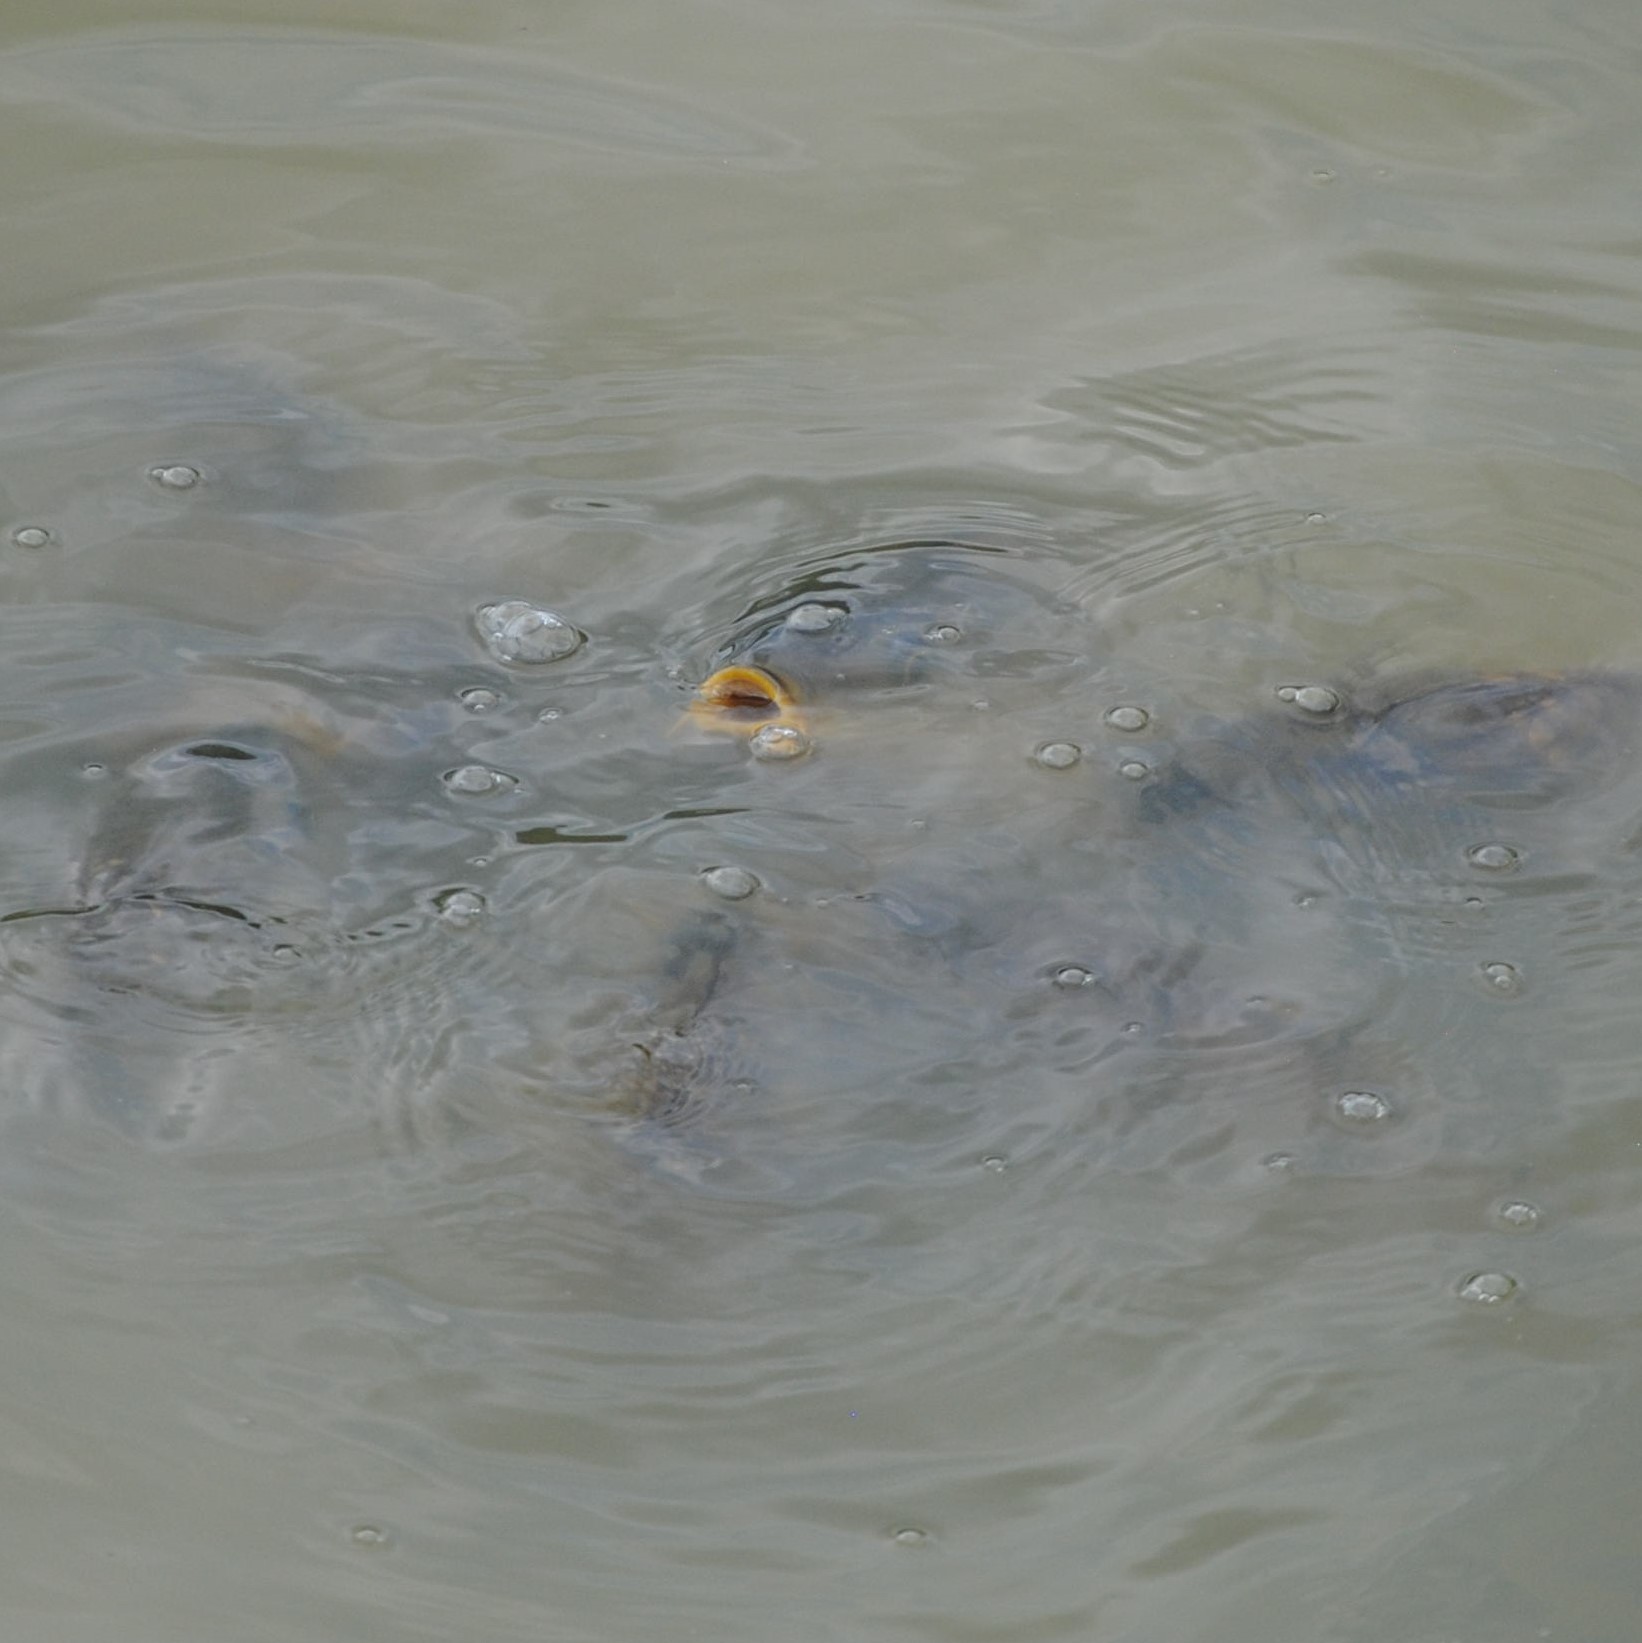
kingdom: Animalia
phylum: Chordata
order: Cypriniformes
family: Cyprinidae
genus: Cyprinus
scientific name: Cyprinus carpio
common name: Common carp
